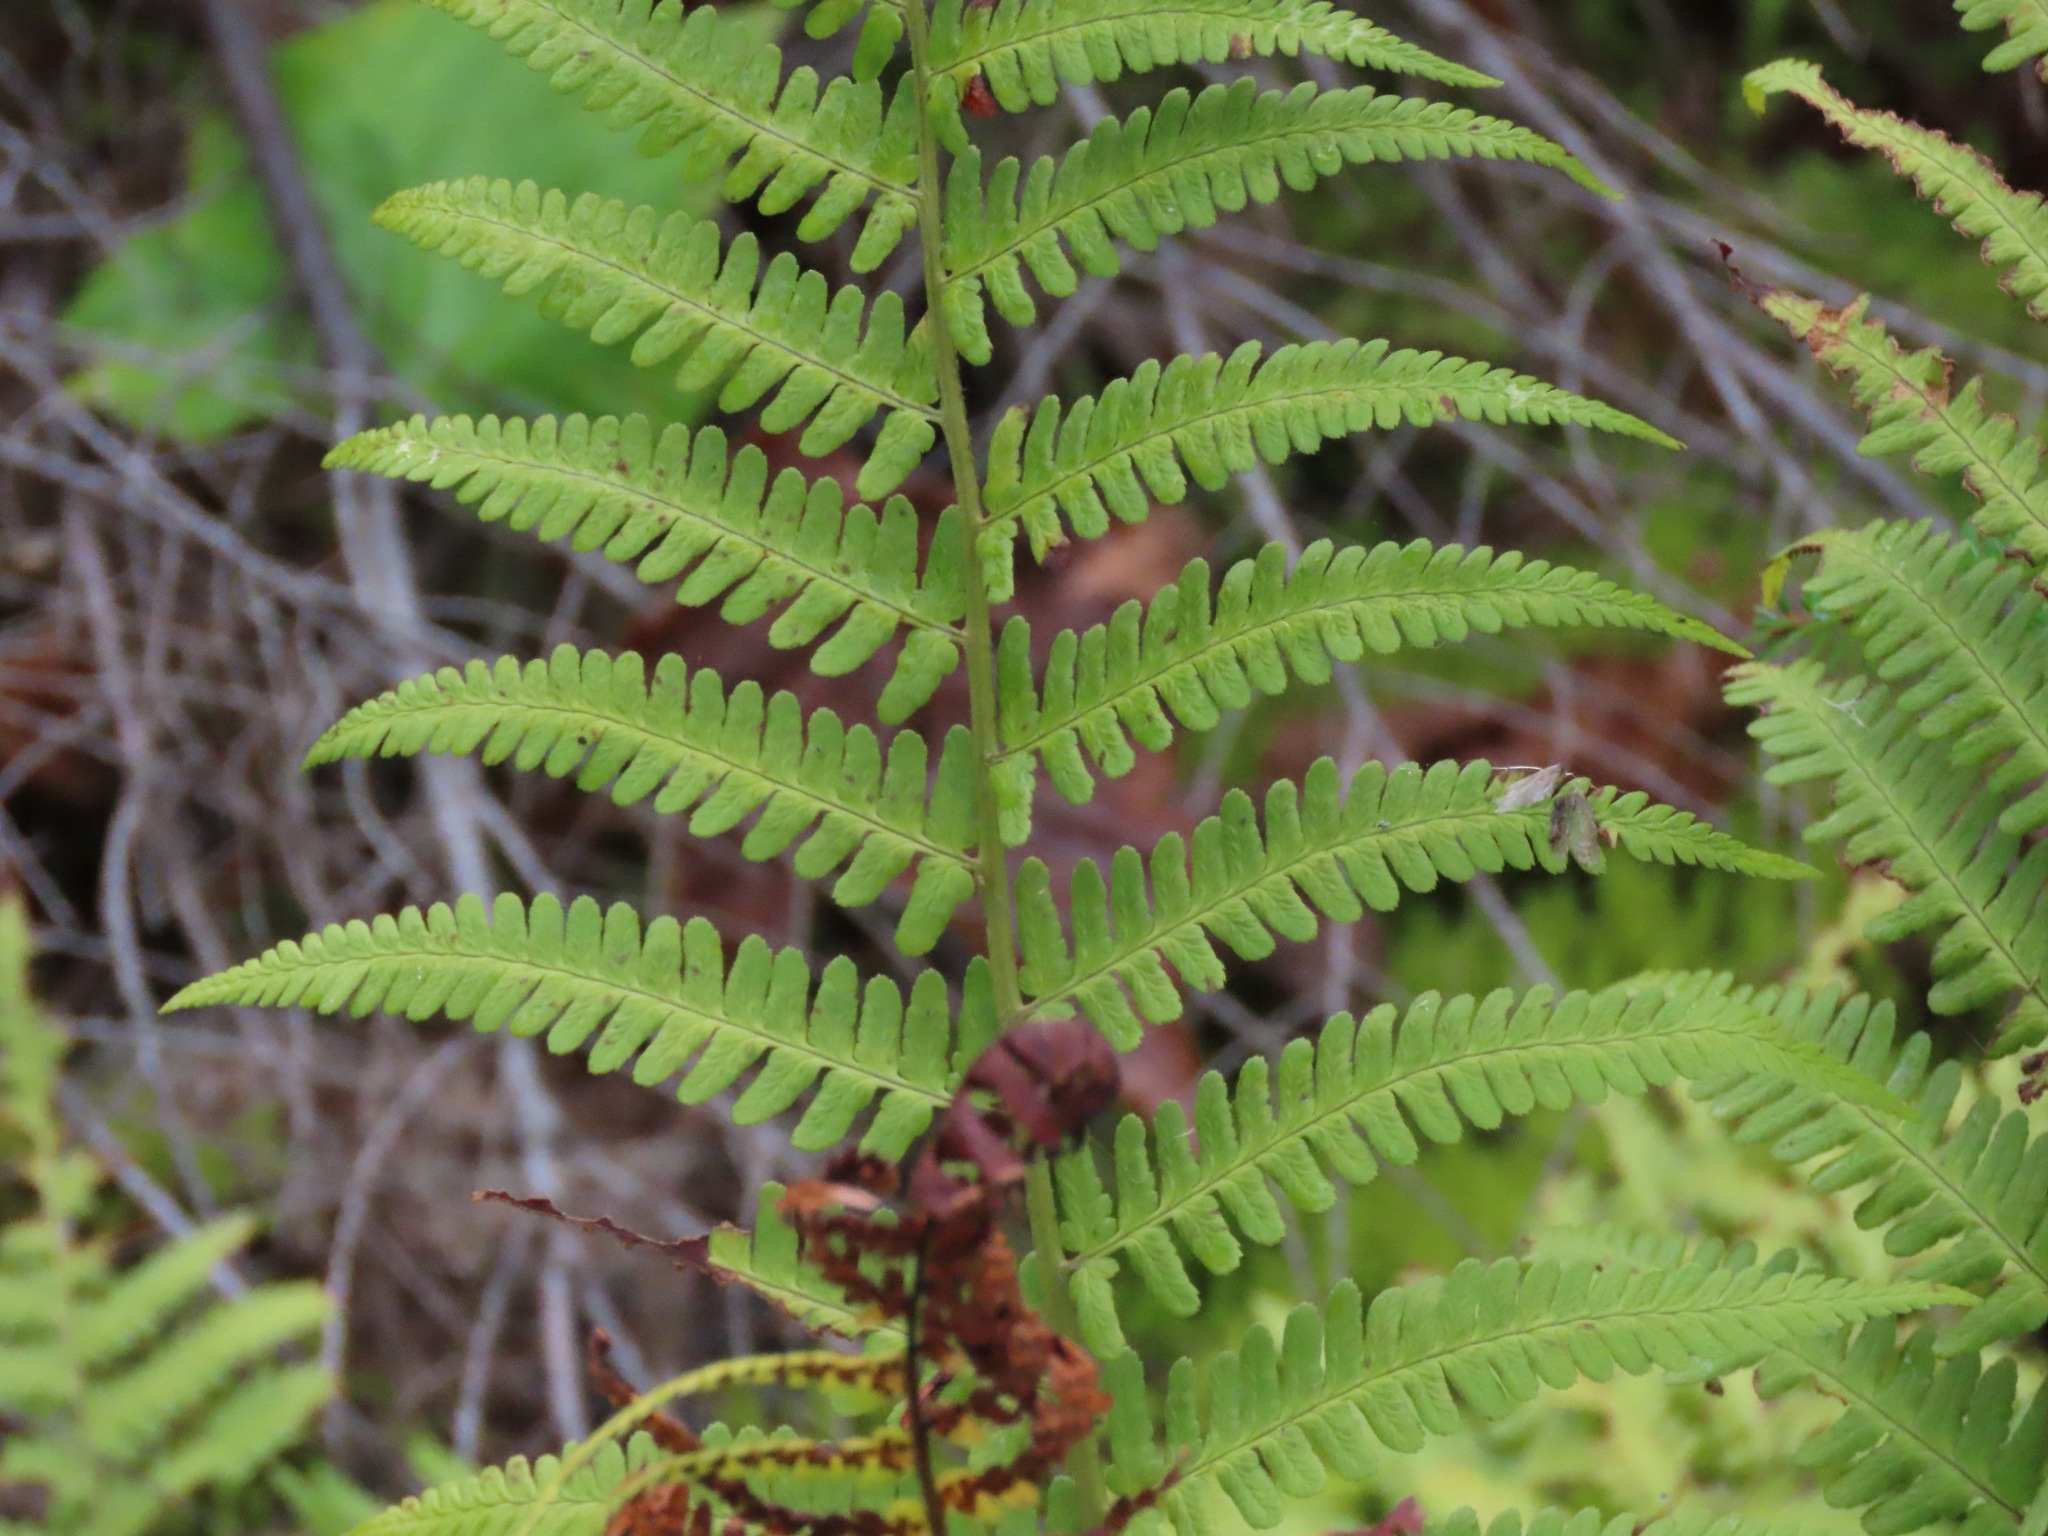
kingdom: Plantae
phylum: Tracheophyta
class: Polypodiopsida
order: Polypodiales
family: Dryopteridaceae
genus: Dryopteris
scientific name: Dryopteris filix-mas
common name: Male fern
